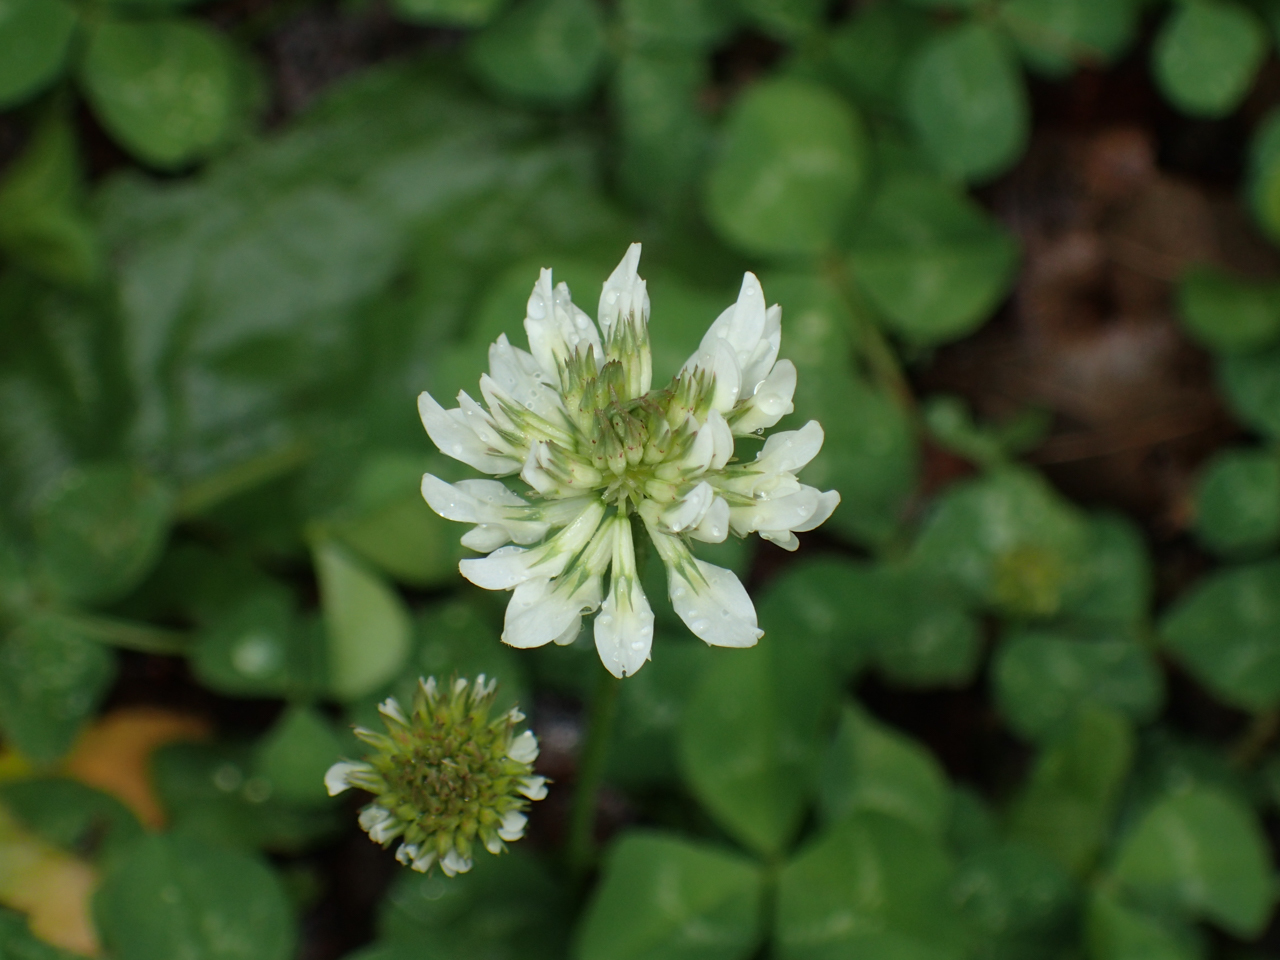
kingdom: Plantae
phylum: Tracheophyta
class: Magnoliopsida
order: Fabales
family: Fabaceae
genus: Trifolium
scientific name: Trifolium repens
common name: White clover
